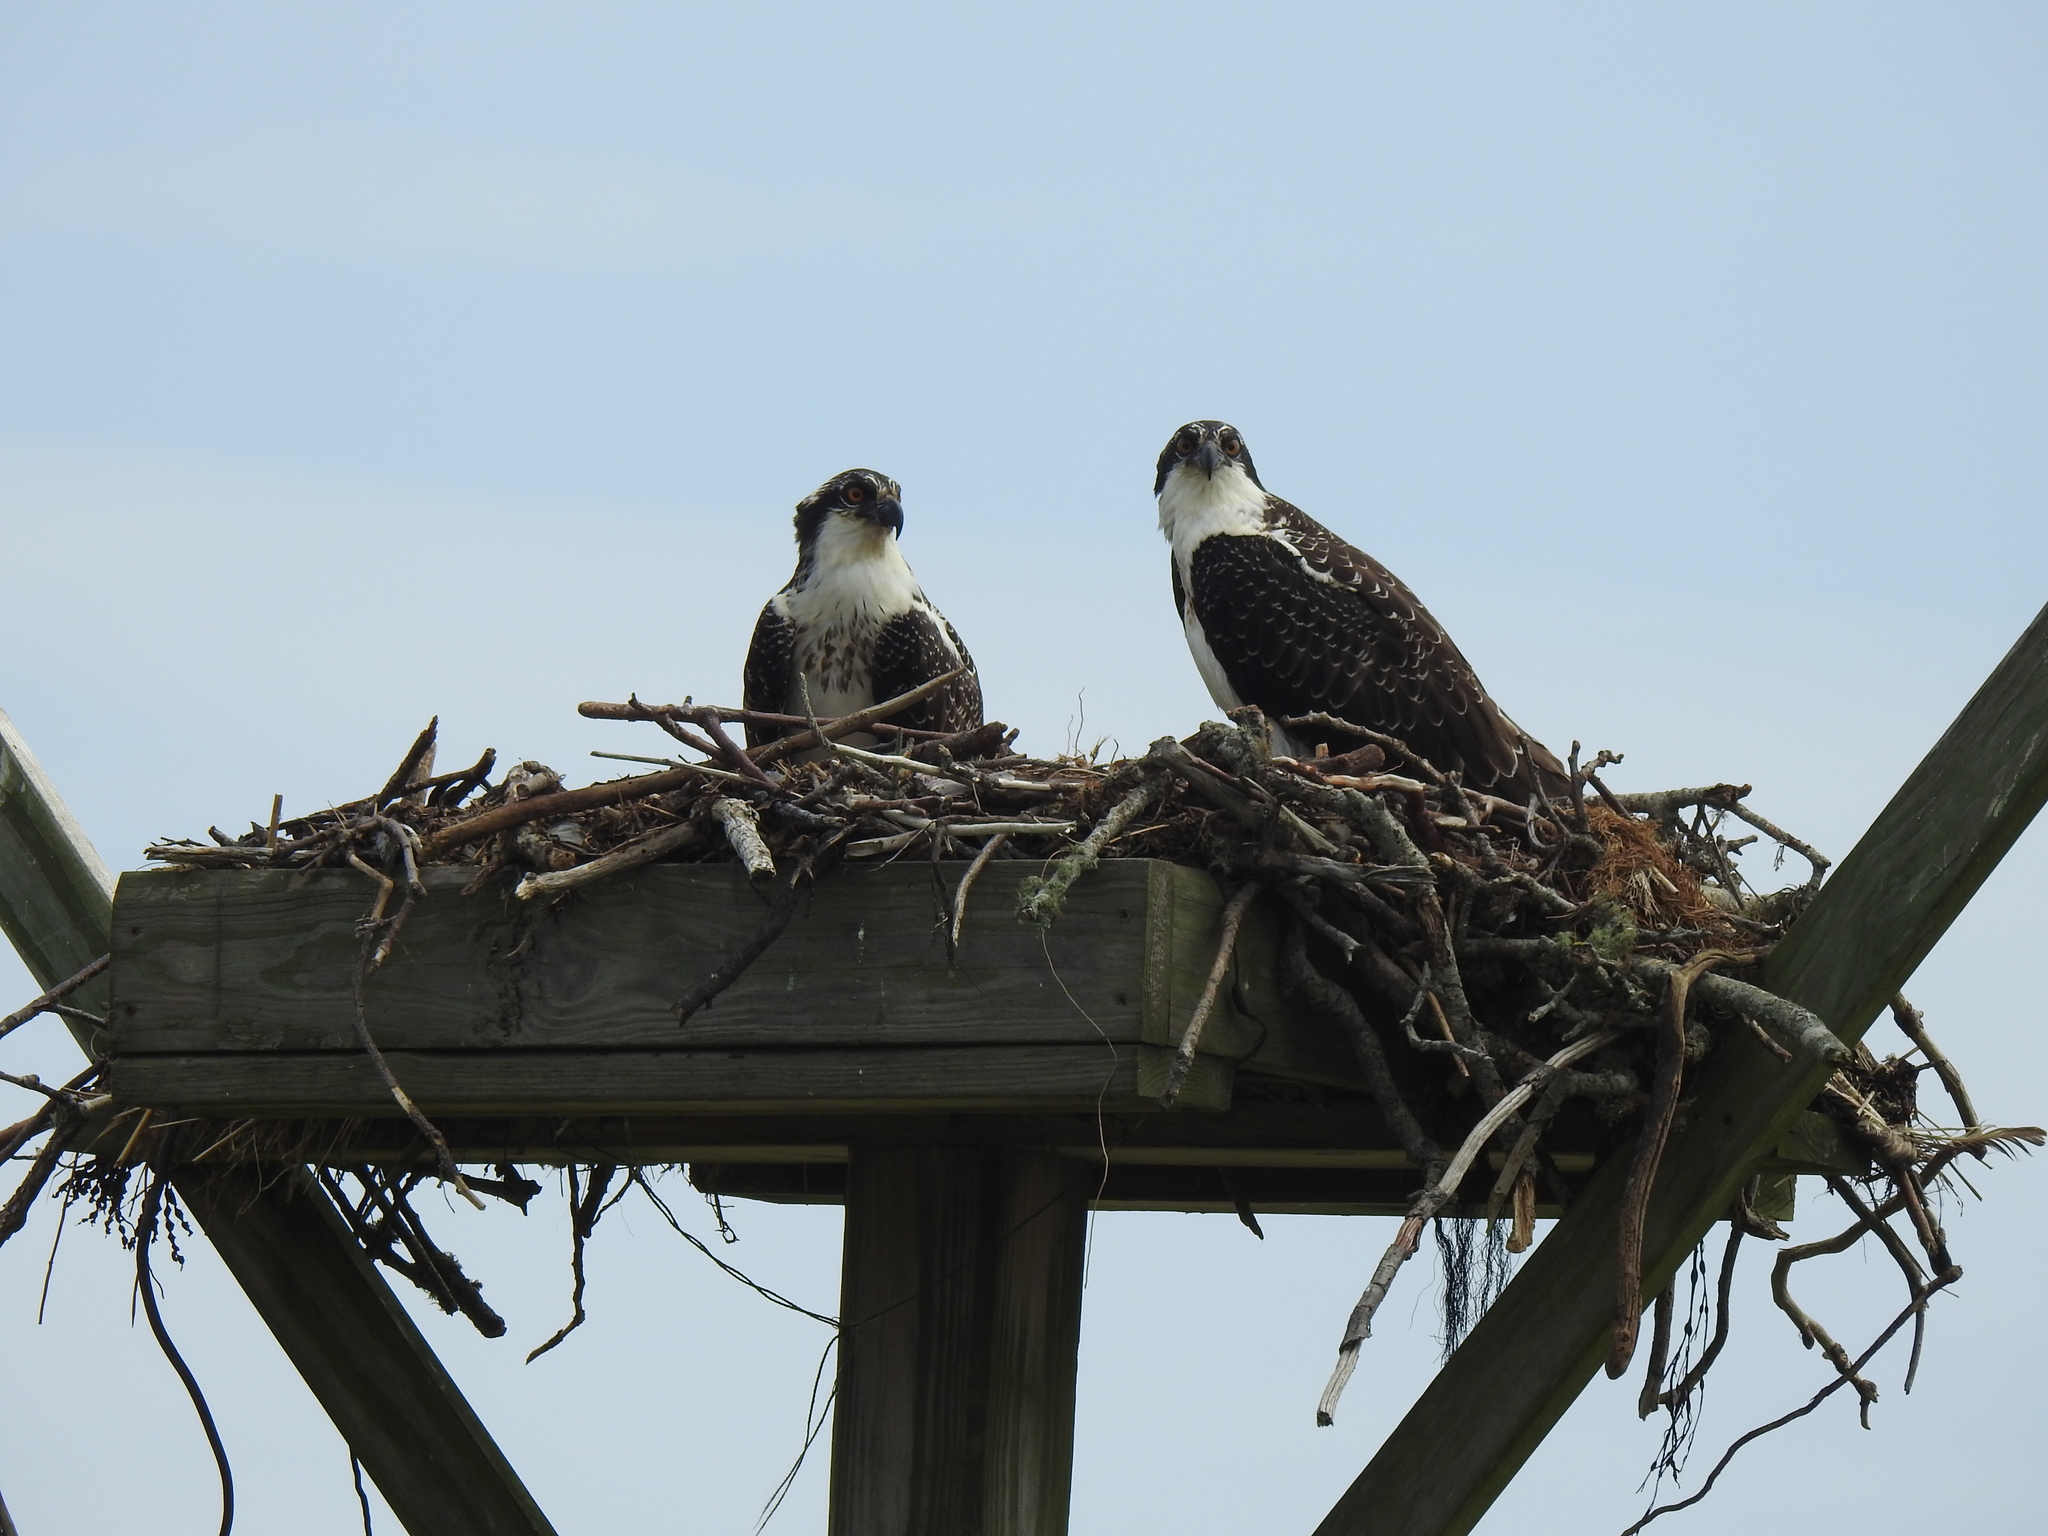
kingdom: Animalia
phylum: Chordata
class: Aves
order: Accipitriformes
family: Pandionidae
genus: Pandion
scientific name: Pandion haliaetus
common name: Osprey
